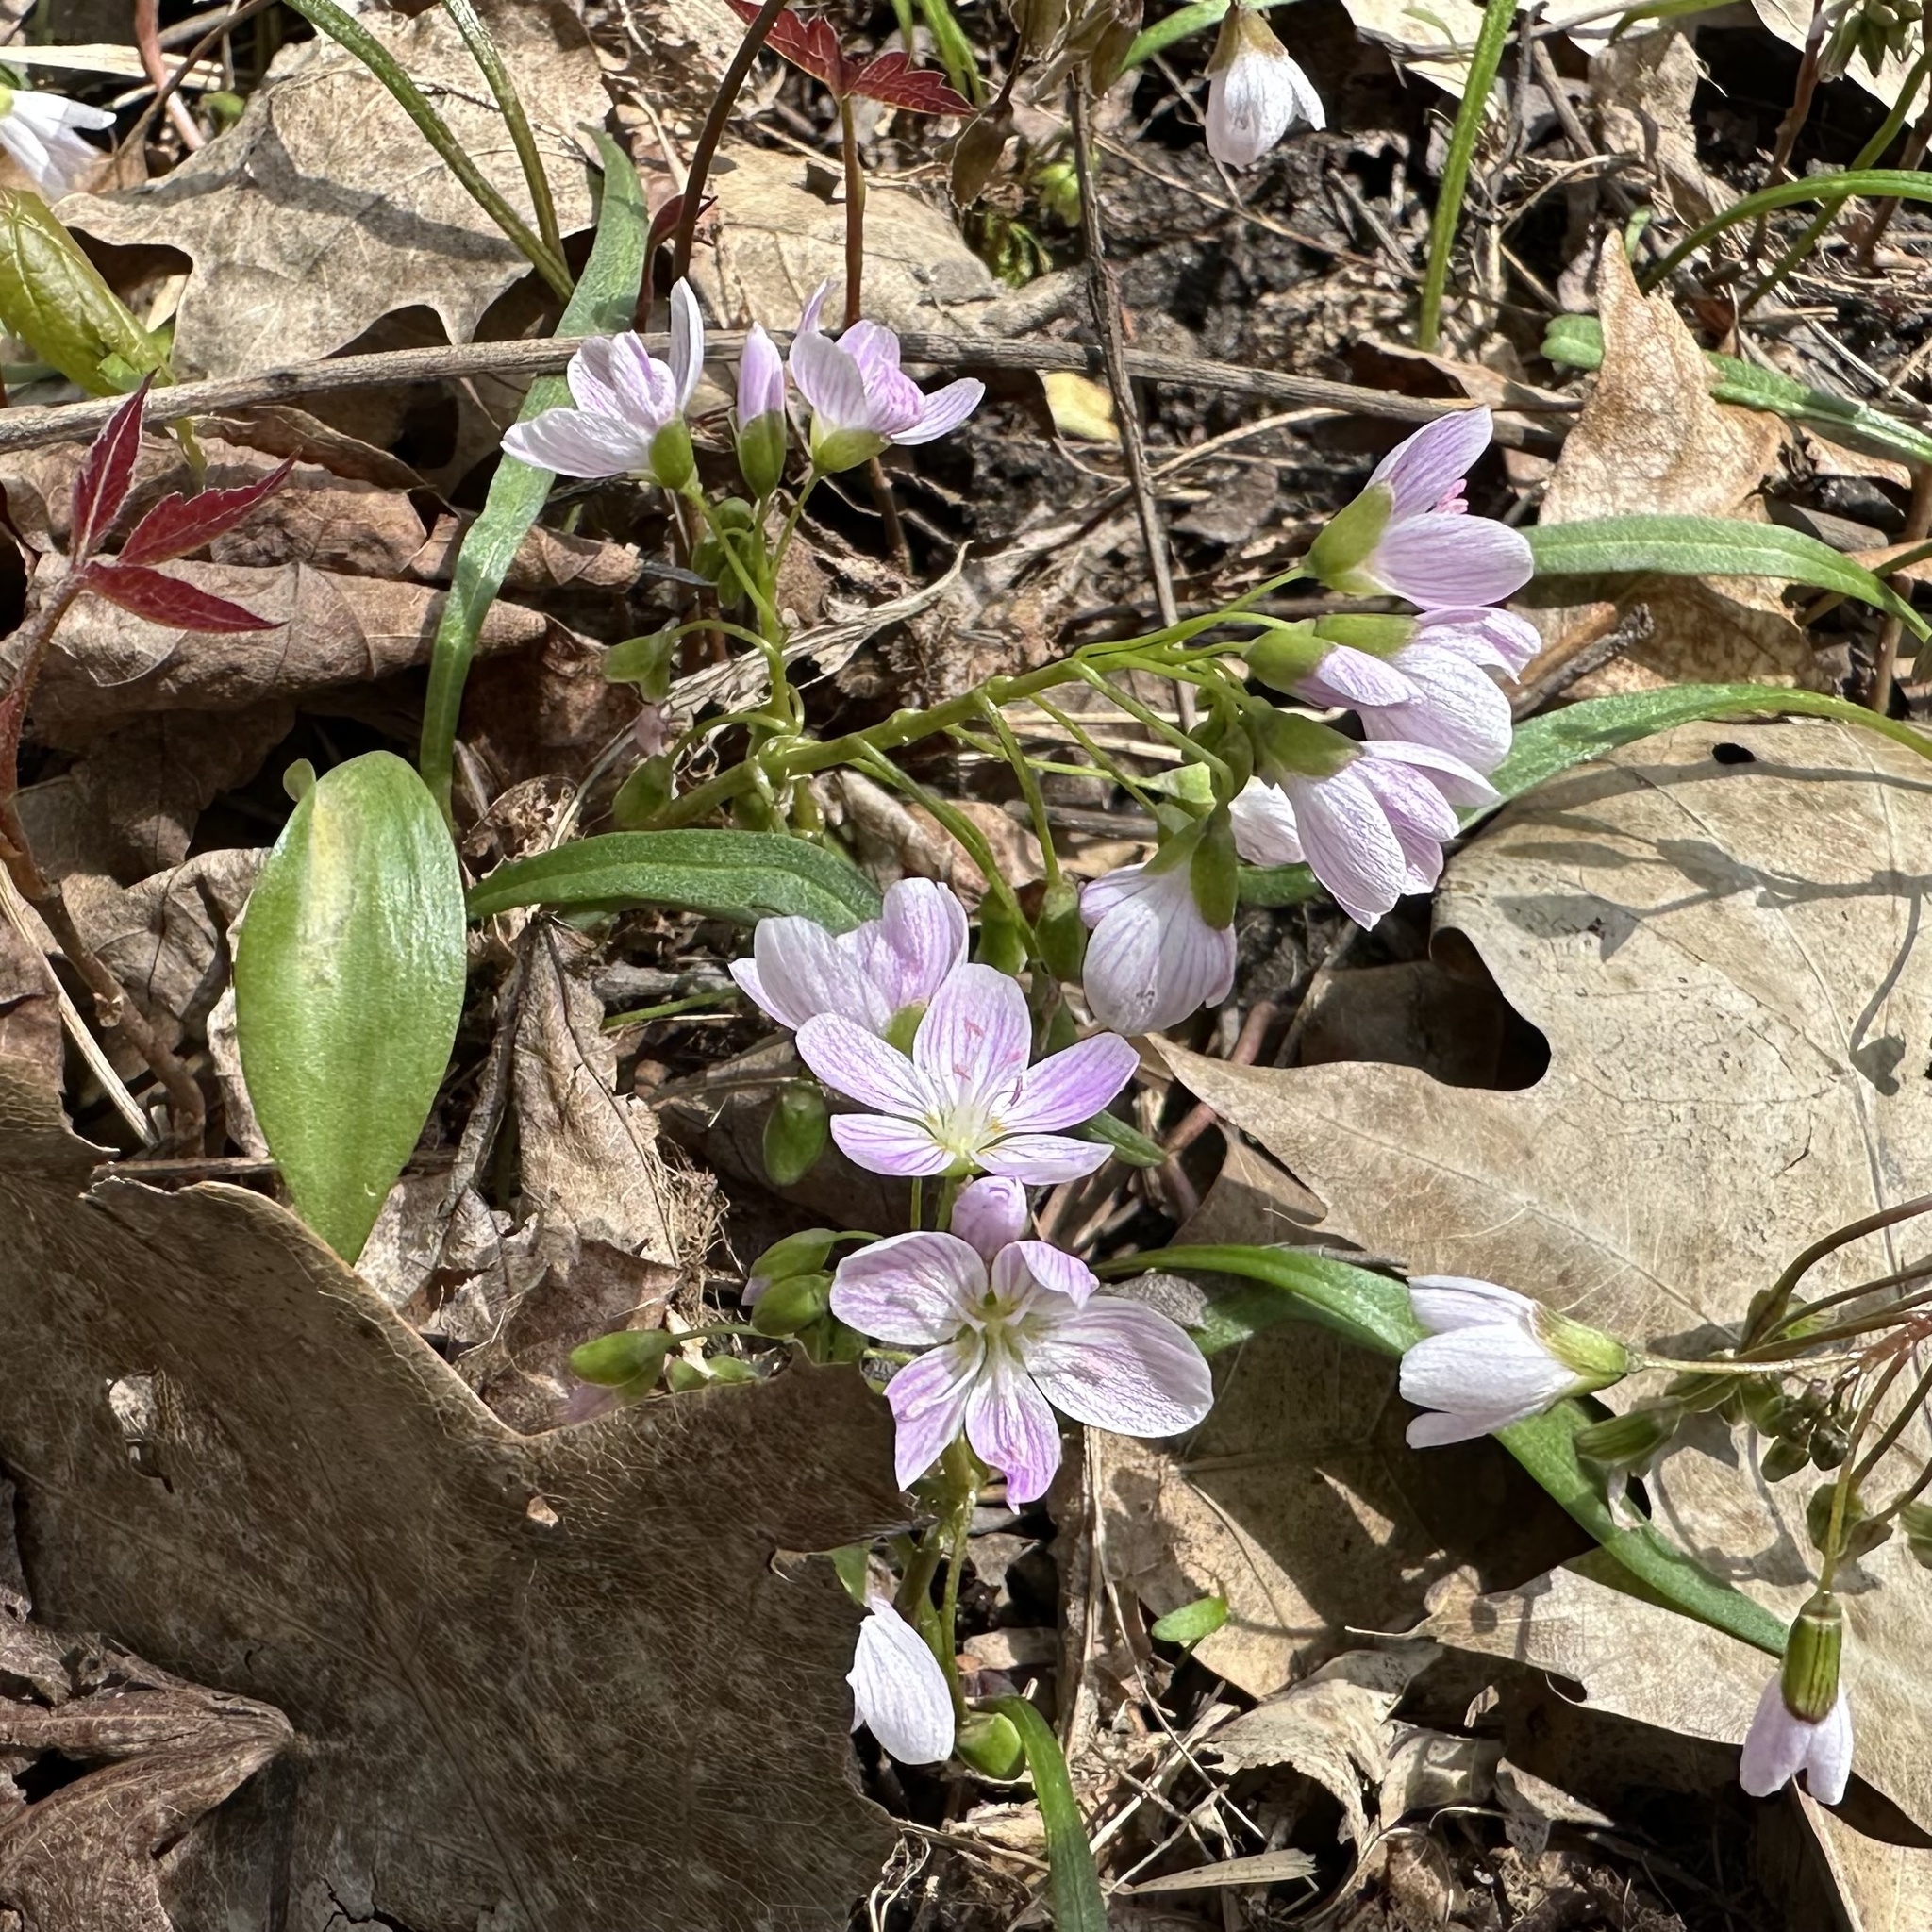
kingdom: Plantae
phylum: Tracheophyta
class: Magnoliopsida
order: Caryophyllales
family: Montiaceae
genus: Claytonia
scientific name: Claytonia virginica
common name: Virginia springbeauty
